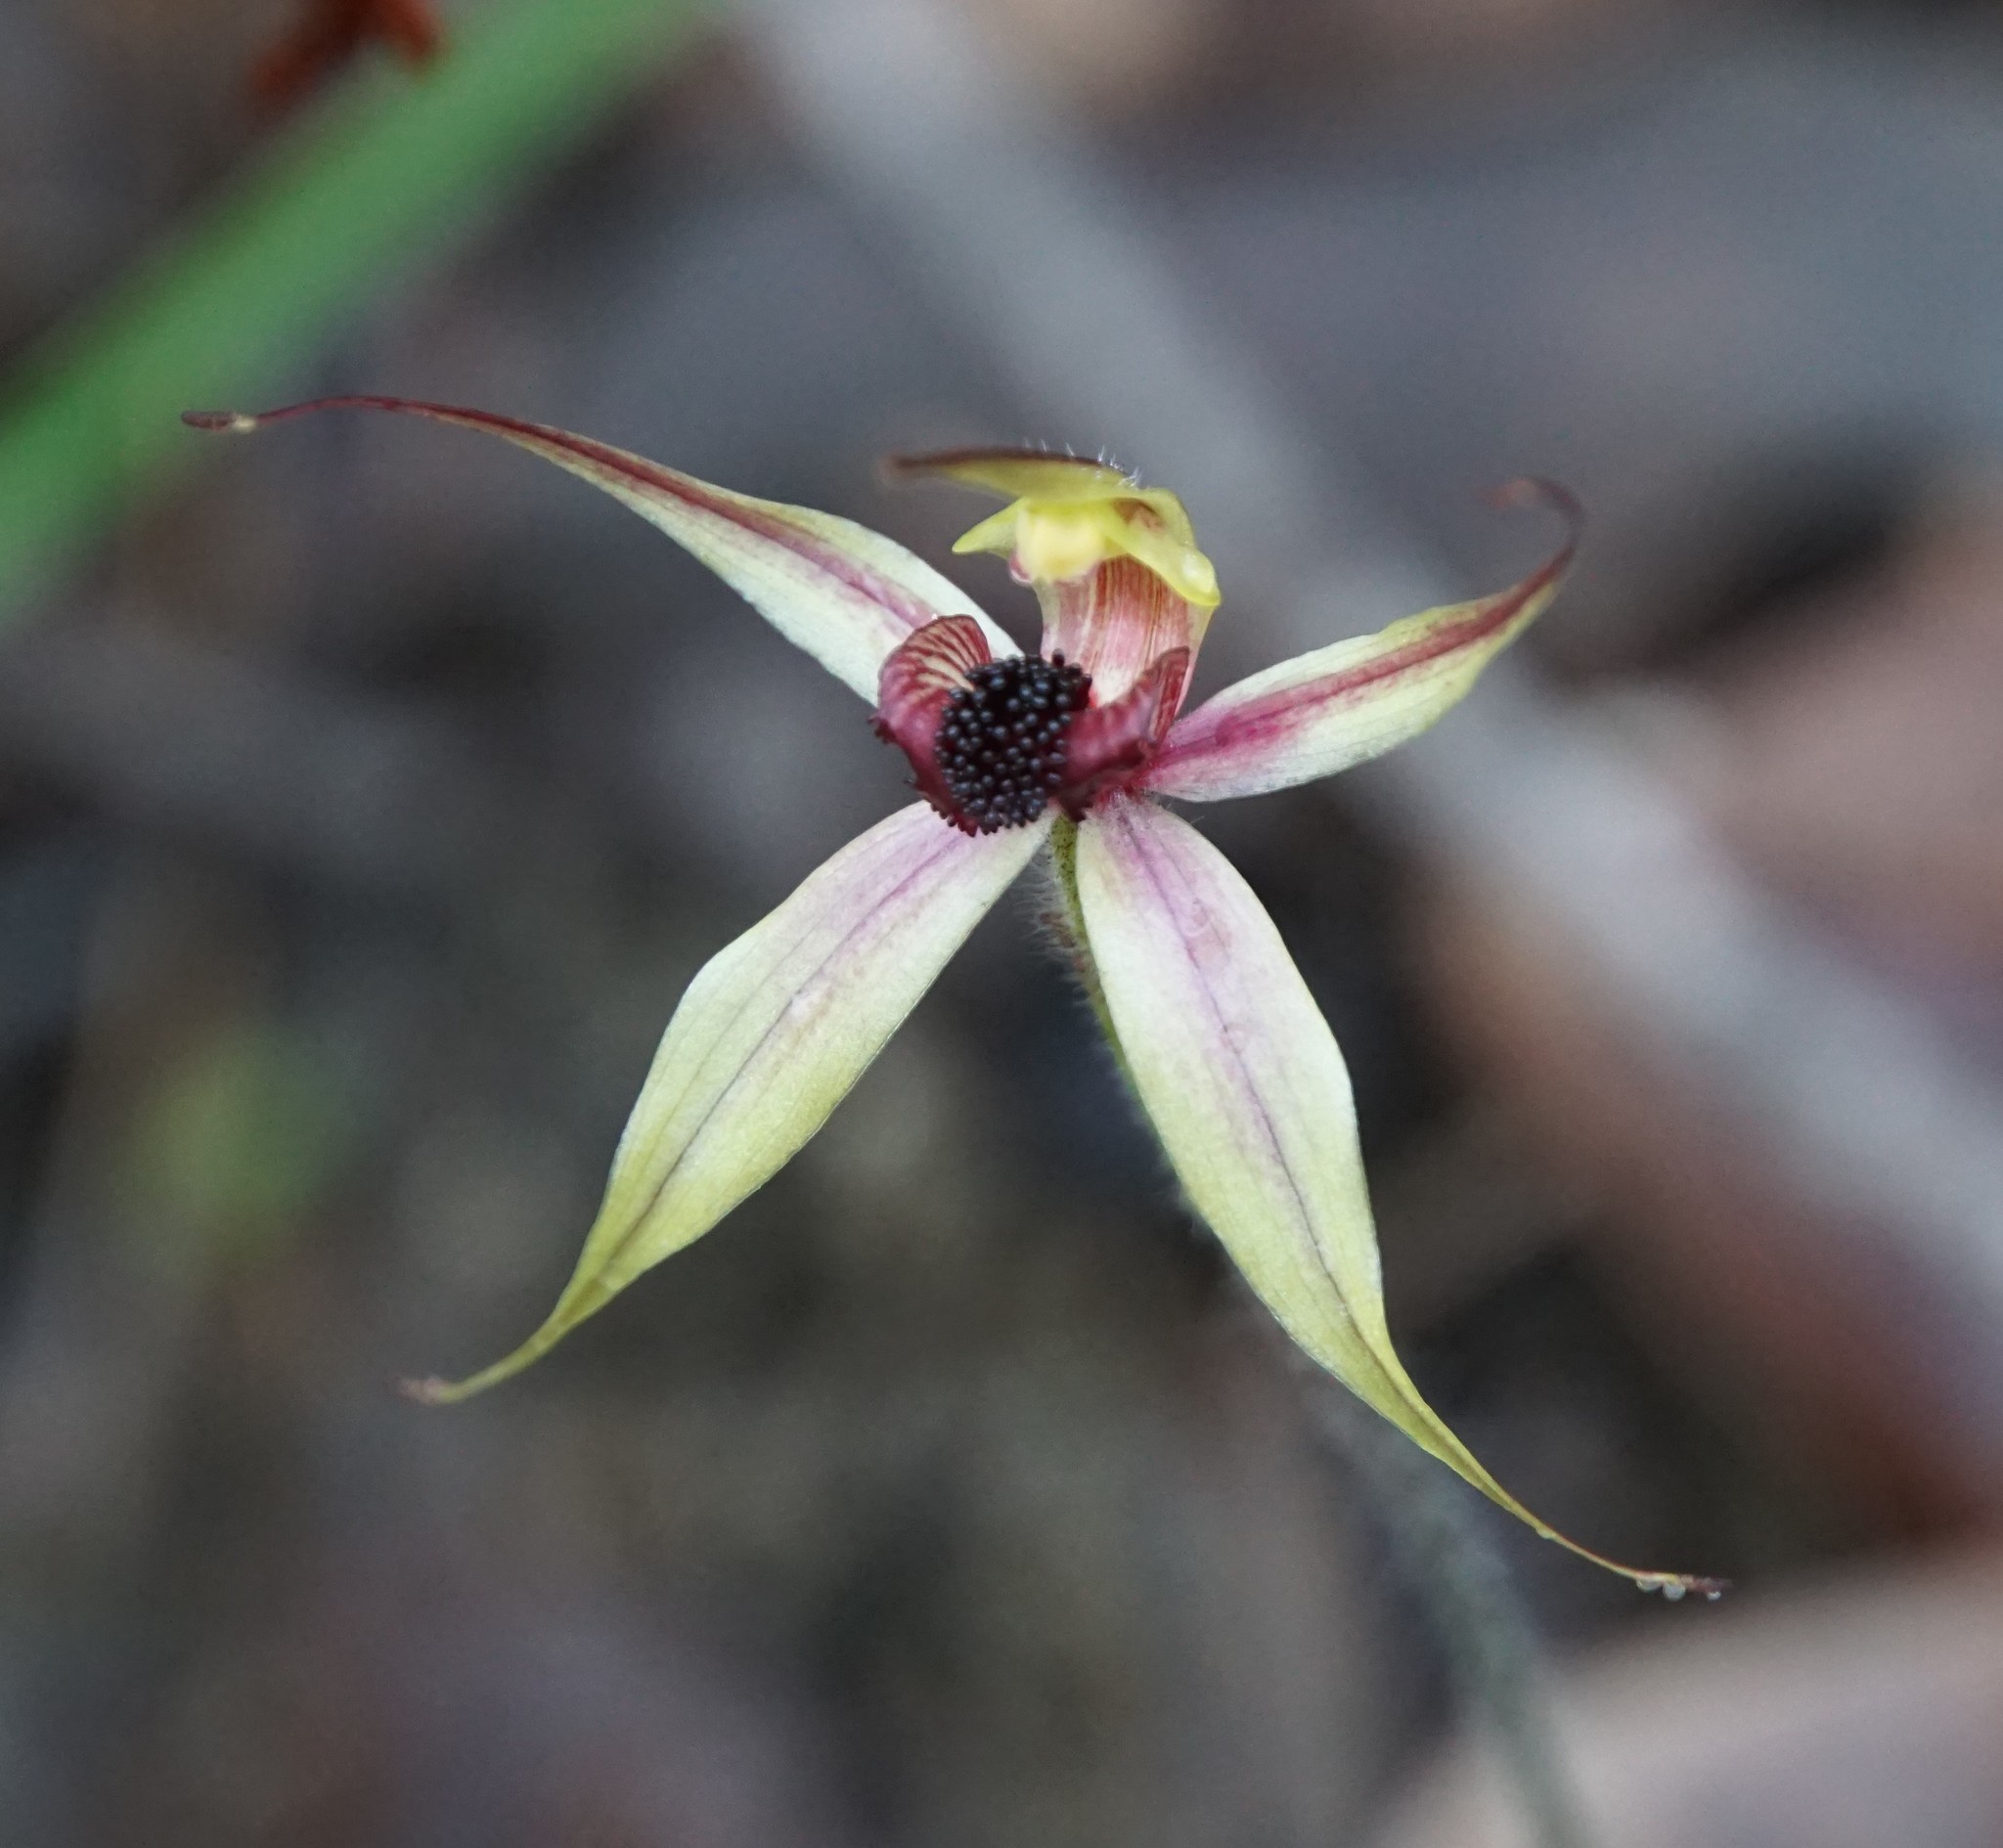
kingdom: Plantae
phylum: Tracheophyta
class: Liliopsida
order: Asparagales
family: Orchidaceae
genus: Caladenia
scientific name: Caladenia macrostylis
